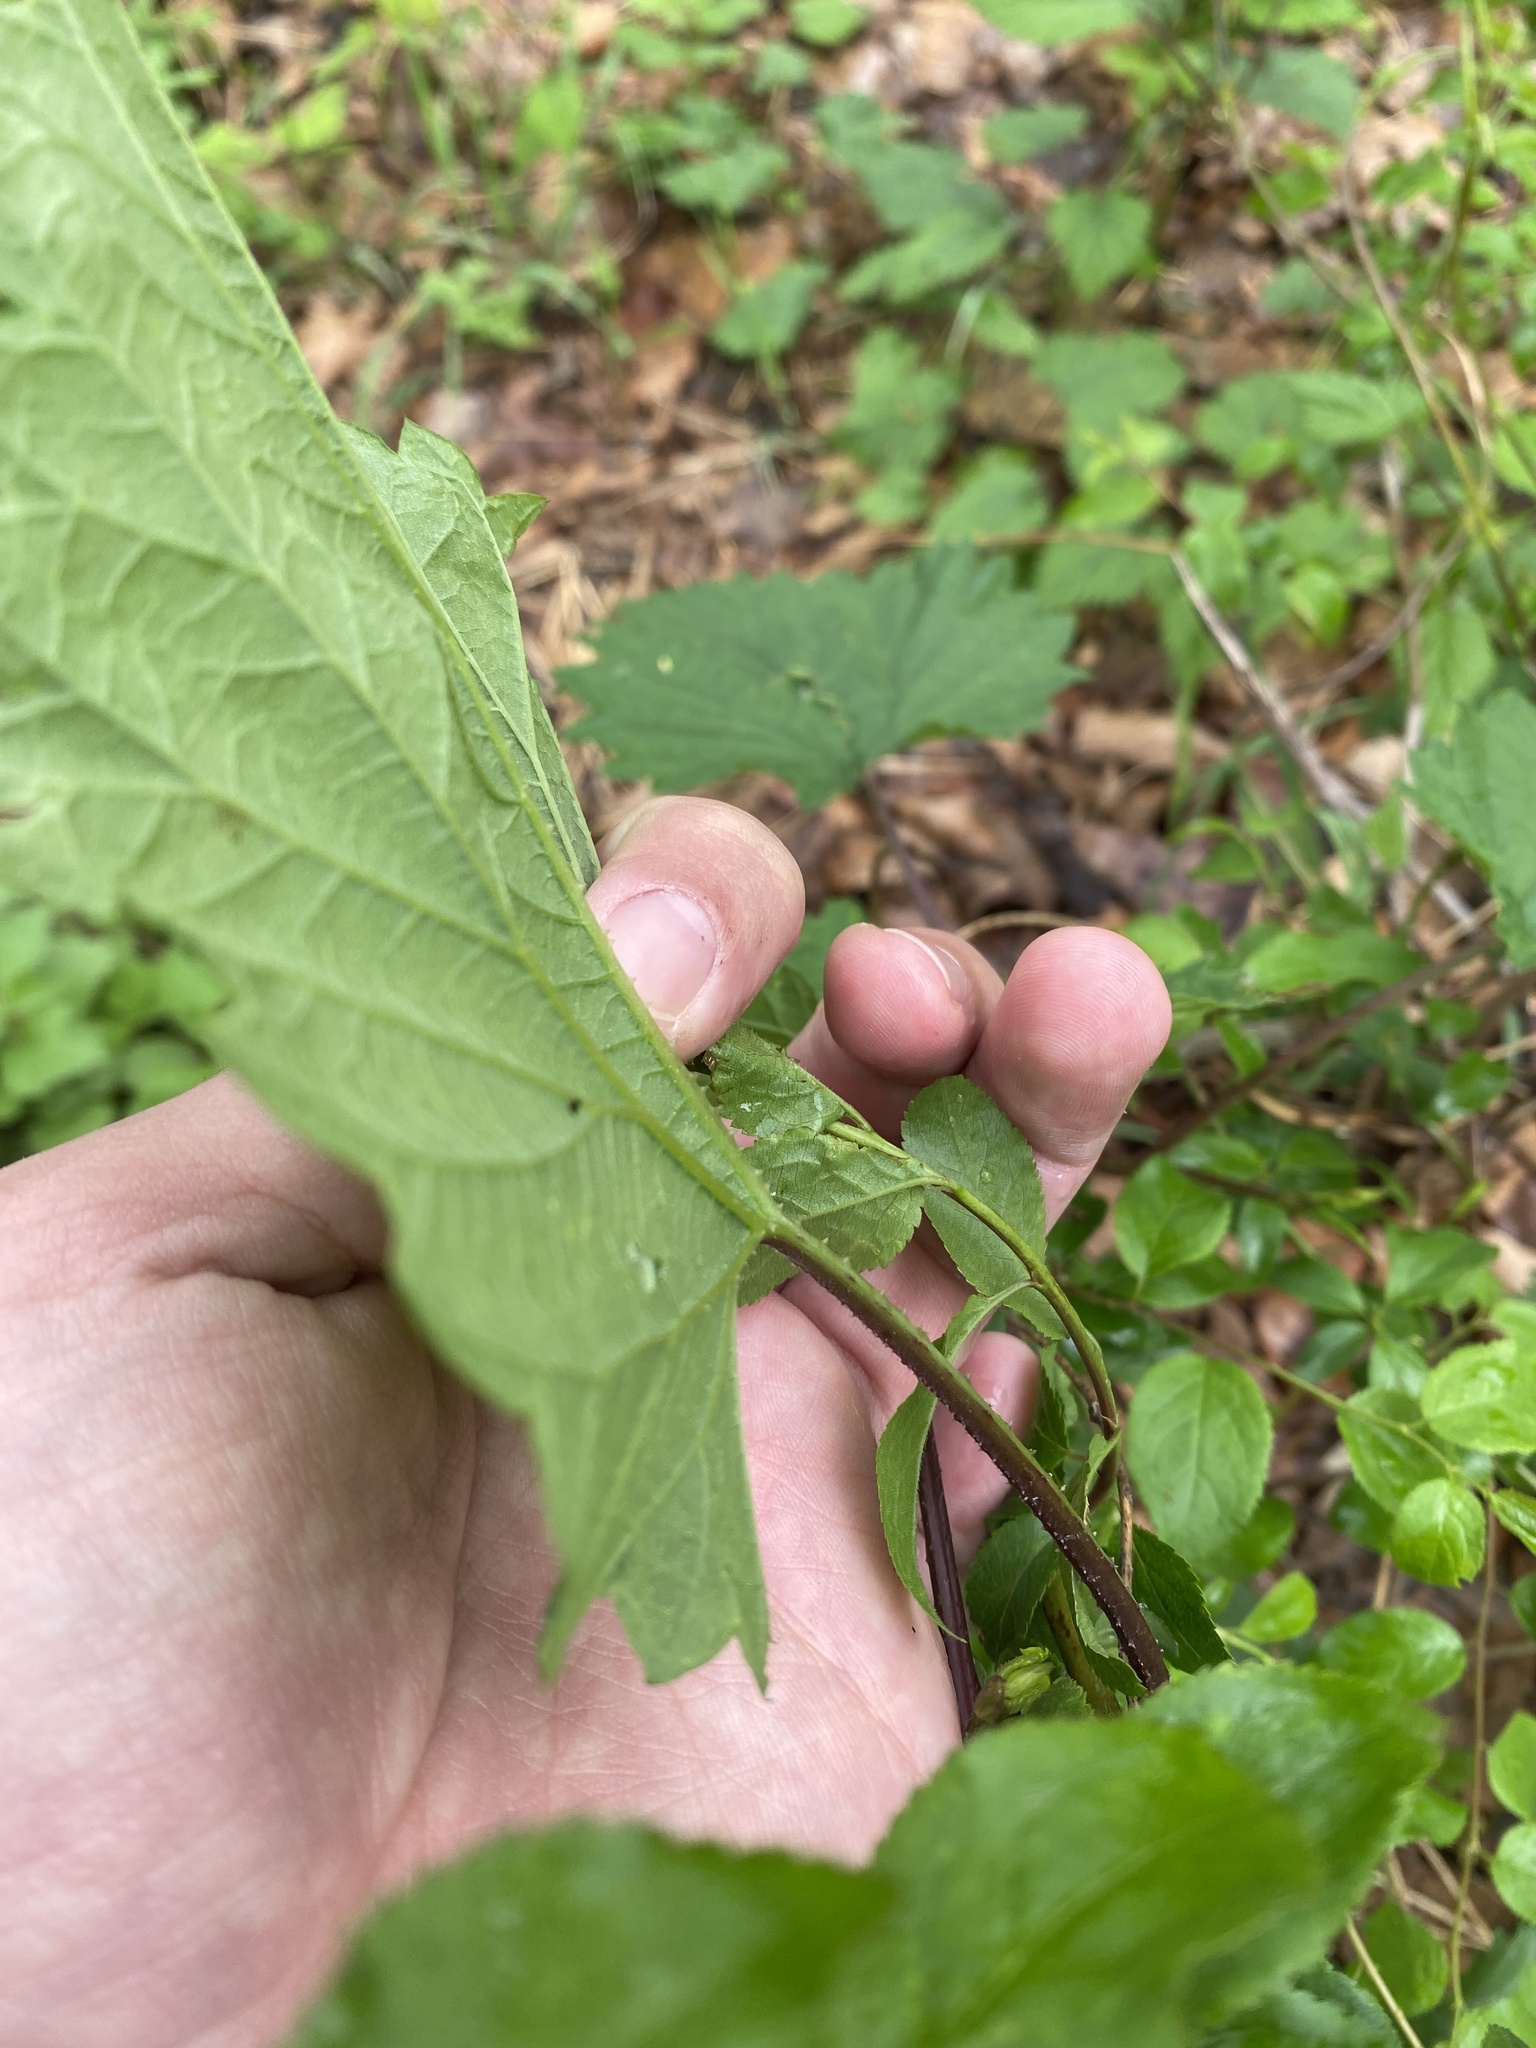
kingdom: Plantae
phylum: Tracheophyta
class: Magnoliopsida
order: Rosales
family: Cannabaceae
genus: Humulus
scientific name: Humulus lupulus
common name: Hop
